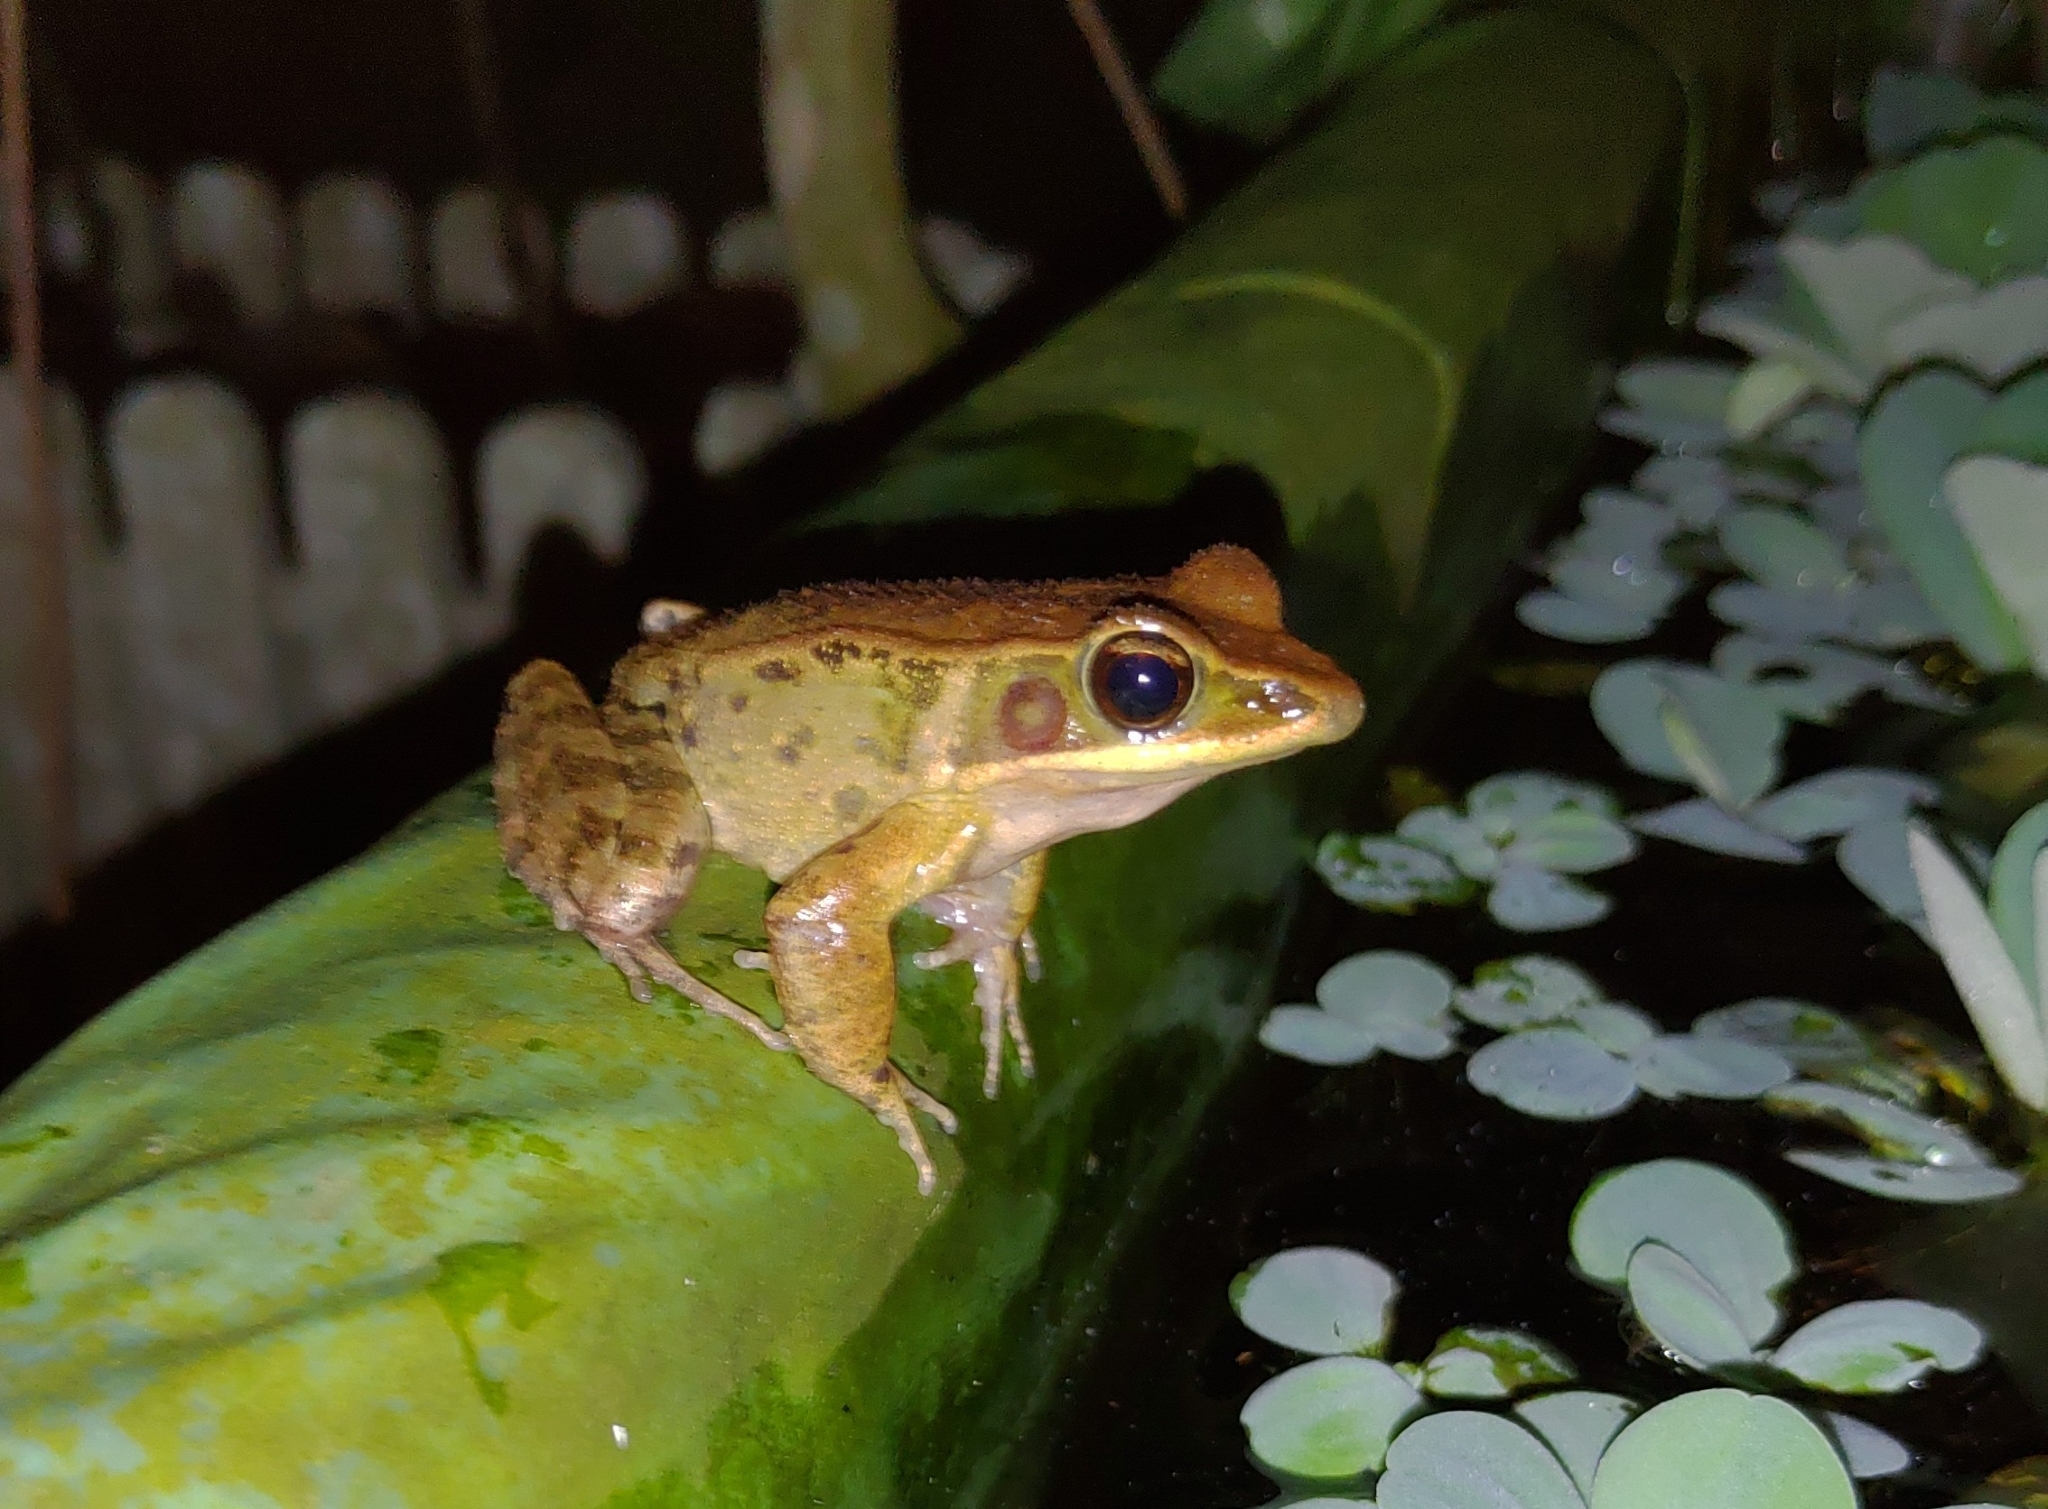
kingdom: Animalia
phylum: Chordata
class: Amphibia
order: Anura
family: Ranidae
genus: Hylarana
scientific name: Hylarana latouchii
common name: Broad-folded frog
